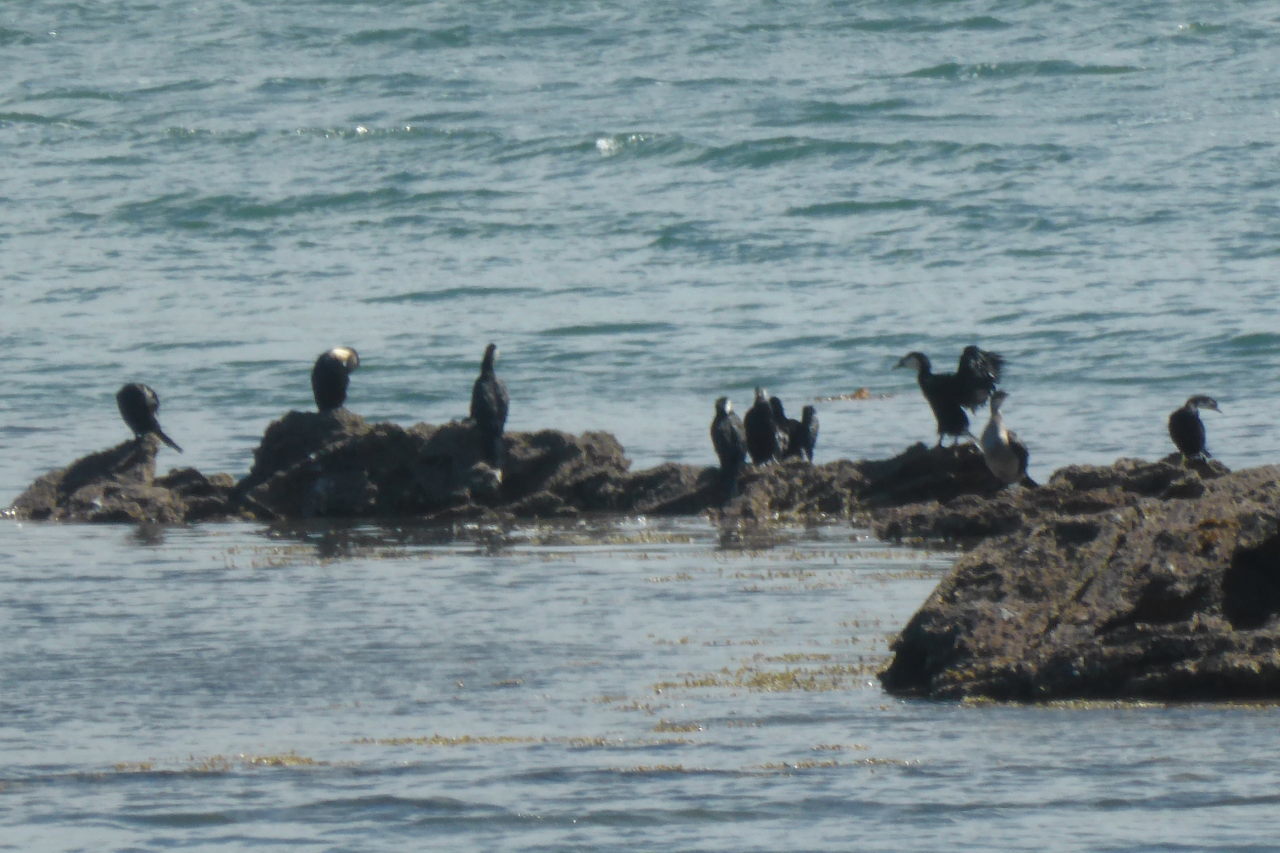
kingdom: Animalia
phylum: Chordata
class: Aves
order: Suliformes
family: Phalacrocoracidae
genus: Microcarbo
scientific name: Microcarbo melanoleucos
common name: Little pied cormorant
